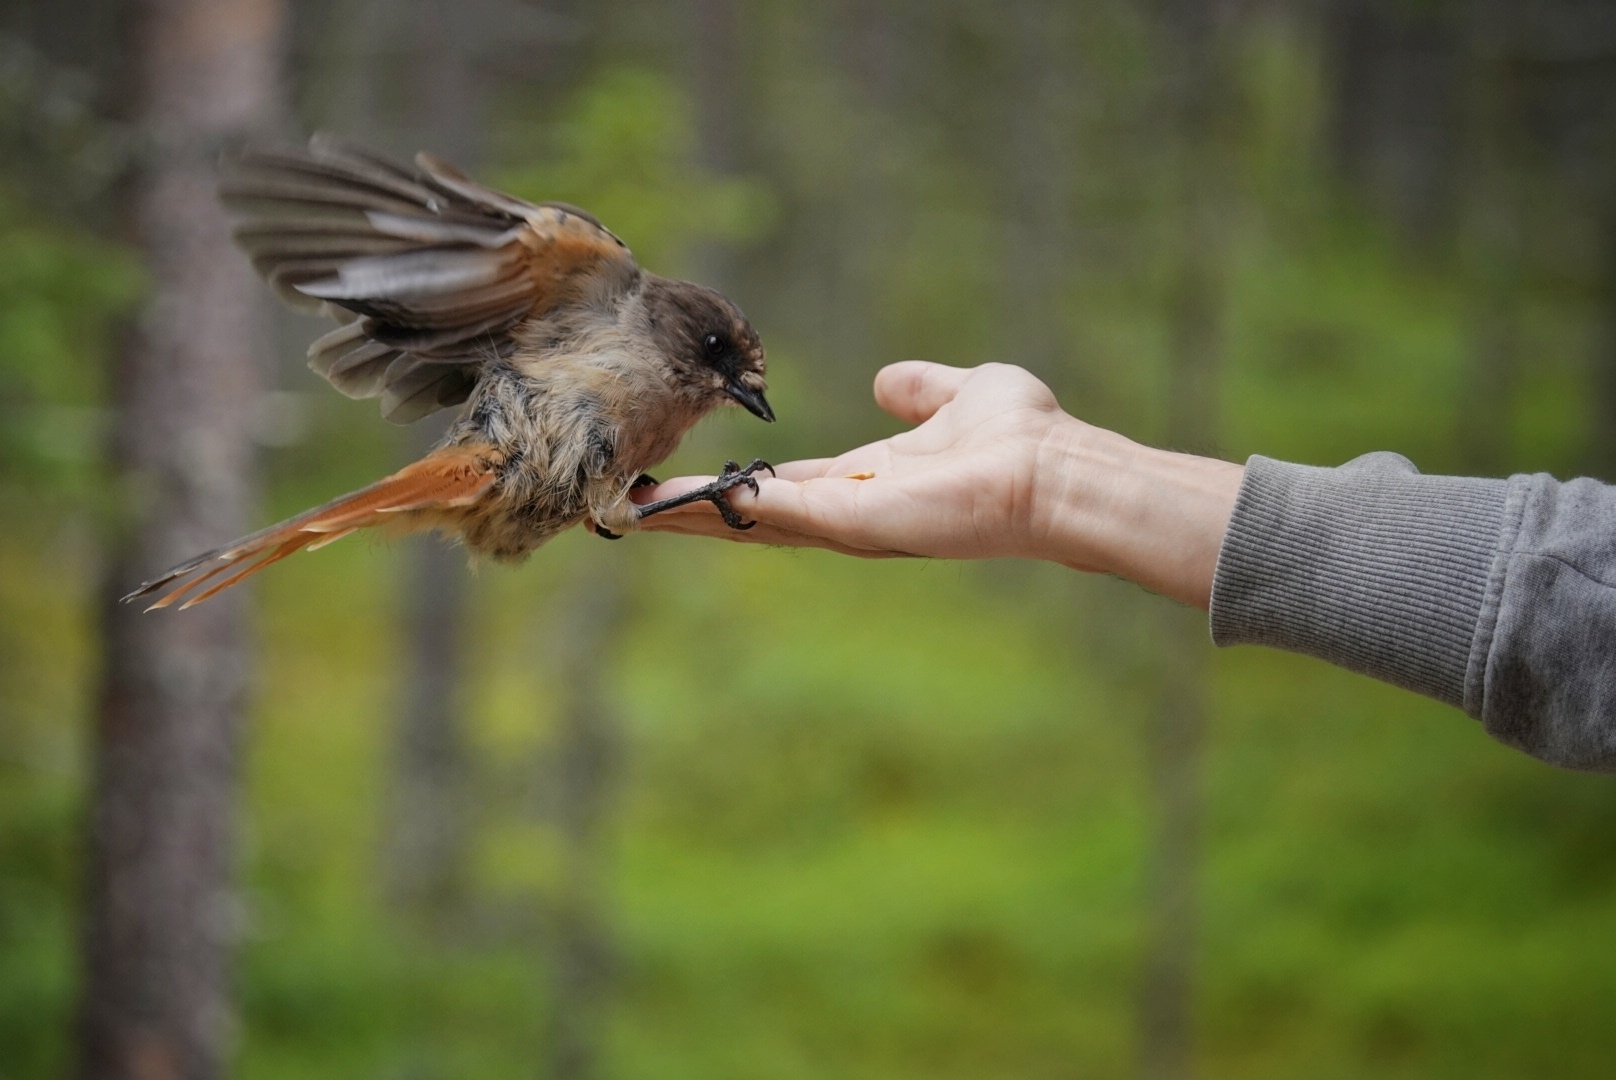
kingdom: Animalia
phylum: Chordata
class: Aves
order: Passeriformes
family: Corvidae
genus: Perisoreus
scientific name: Perisoreus infaustus
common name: Siberian jay
